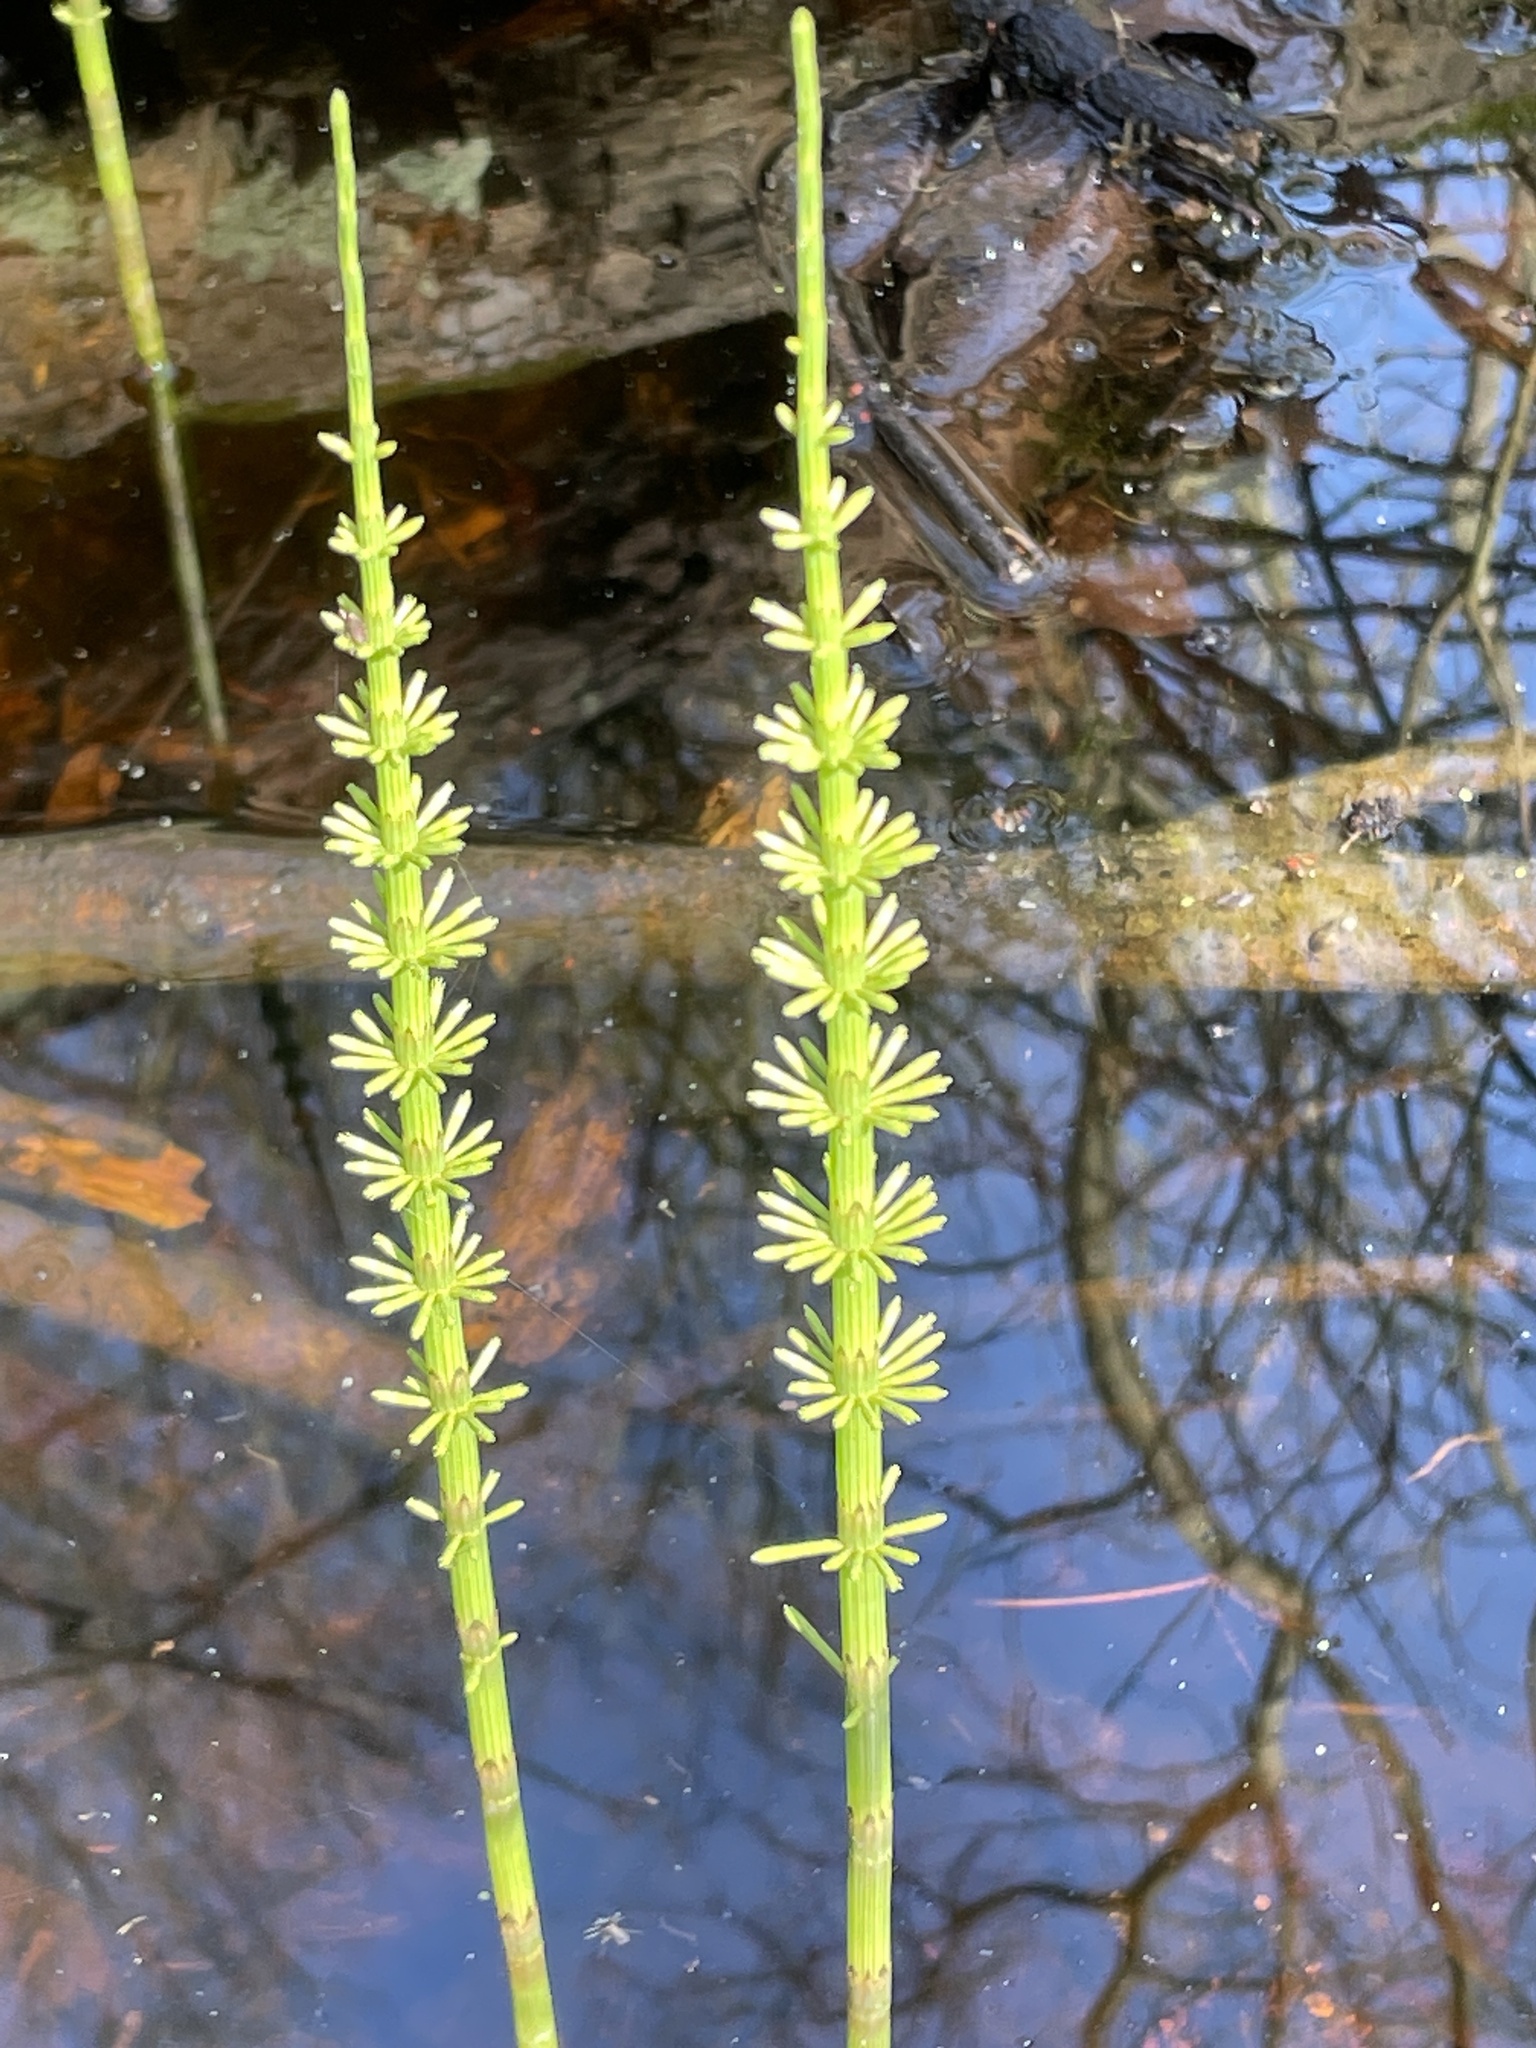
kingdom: Plantae
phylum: Tracheophyta
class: Polypodiopsida
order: Equisetales
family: Equisetaceae
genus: Equisetum
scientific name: Equisetum arvense
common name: Field horsetail
